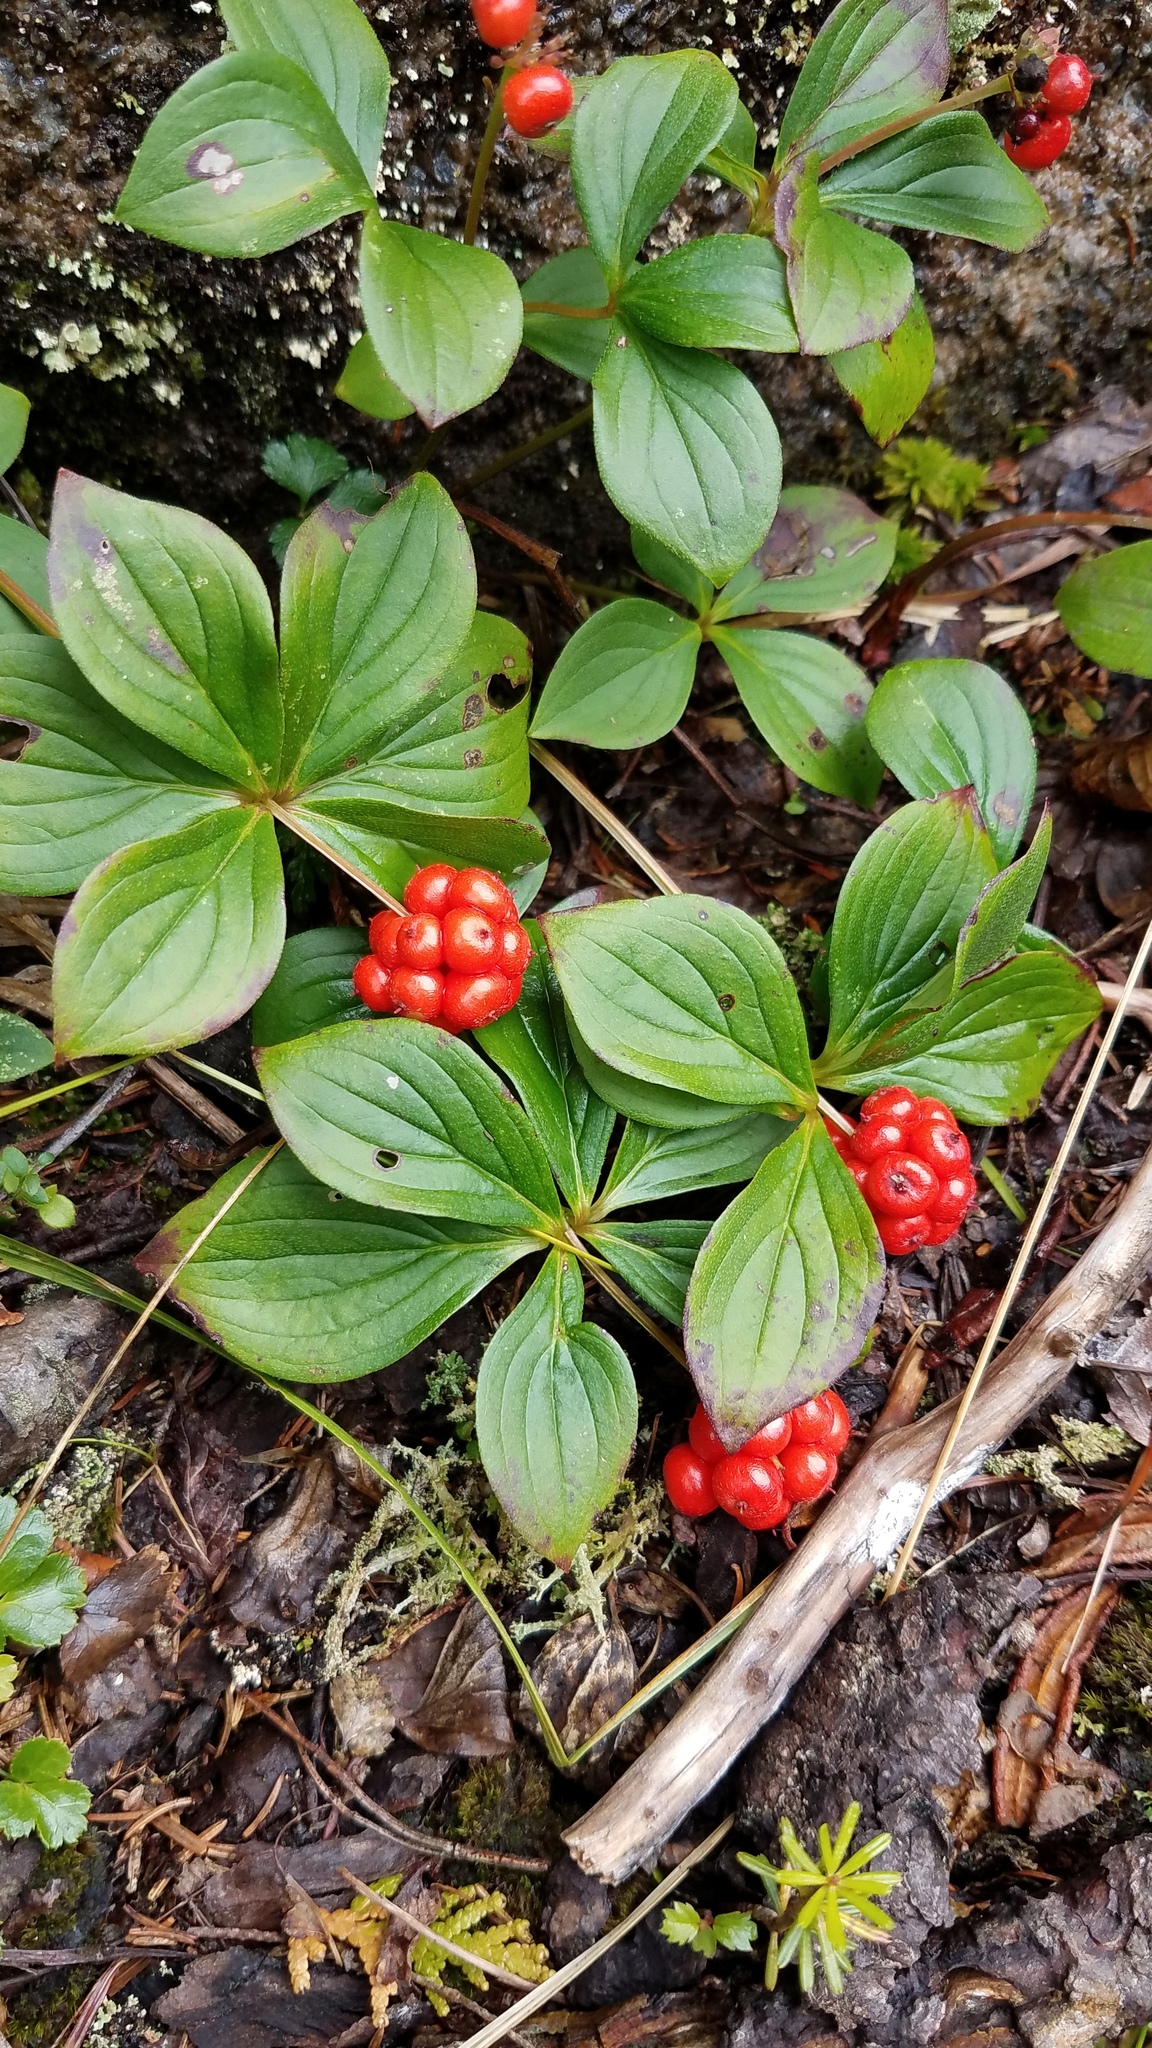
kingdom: Plantae
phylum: Tracheophyta
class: Magnoliopsida
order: Cornales
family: Cornaceae
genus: Cornus
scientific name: Cornus canadensis
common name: Creeping dogwood
